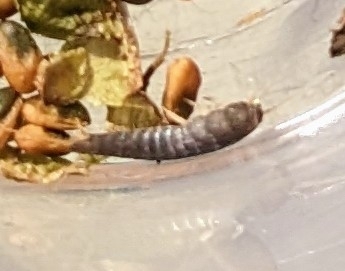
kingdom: Animalia
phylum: Arthropoda
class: Insecta
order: Zygentoma
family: Lepismatidae
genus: Lepisma
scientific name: Lepisma saccharinum
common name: Silverfish
